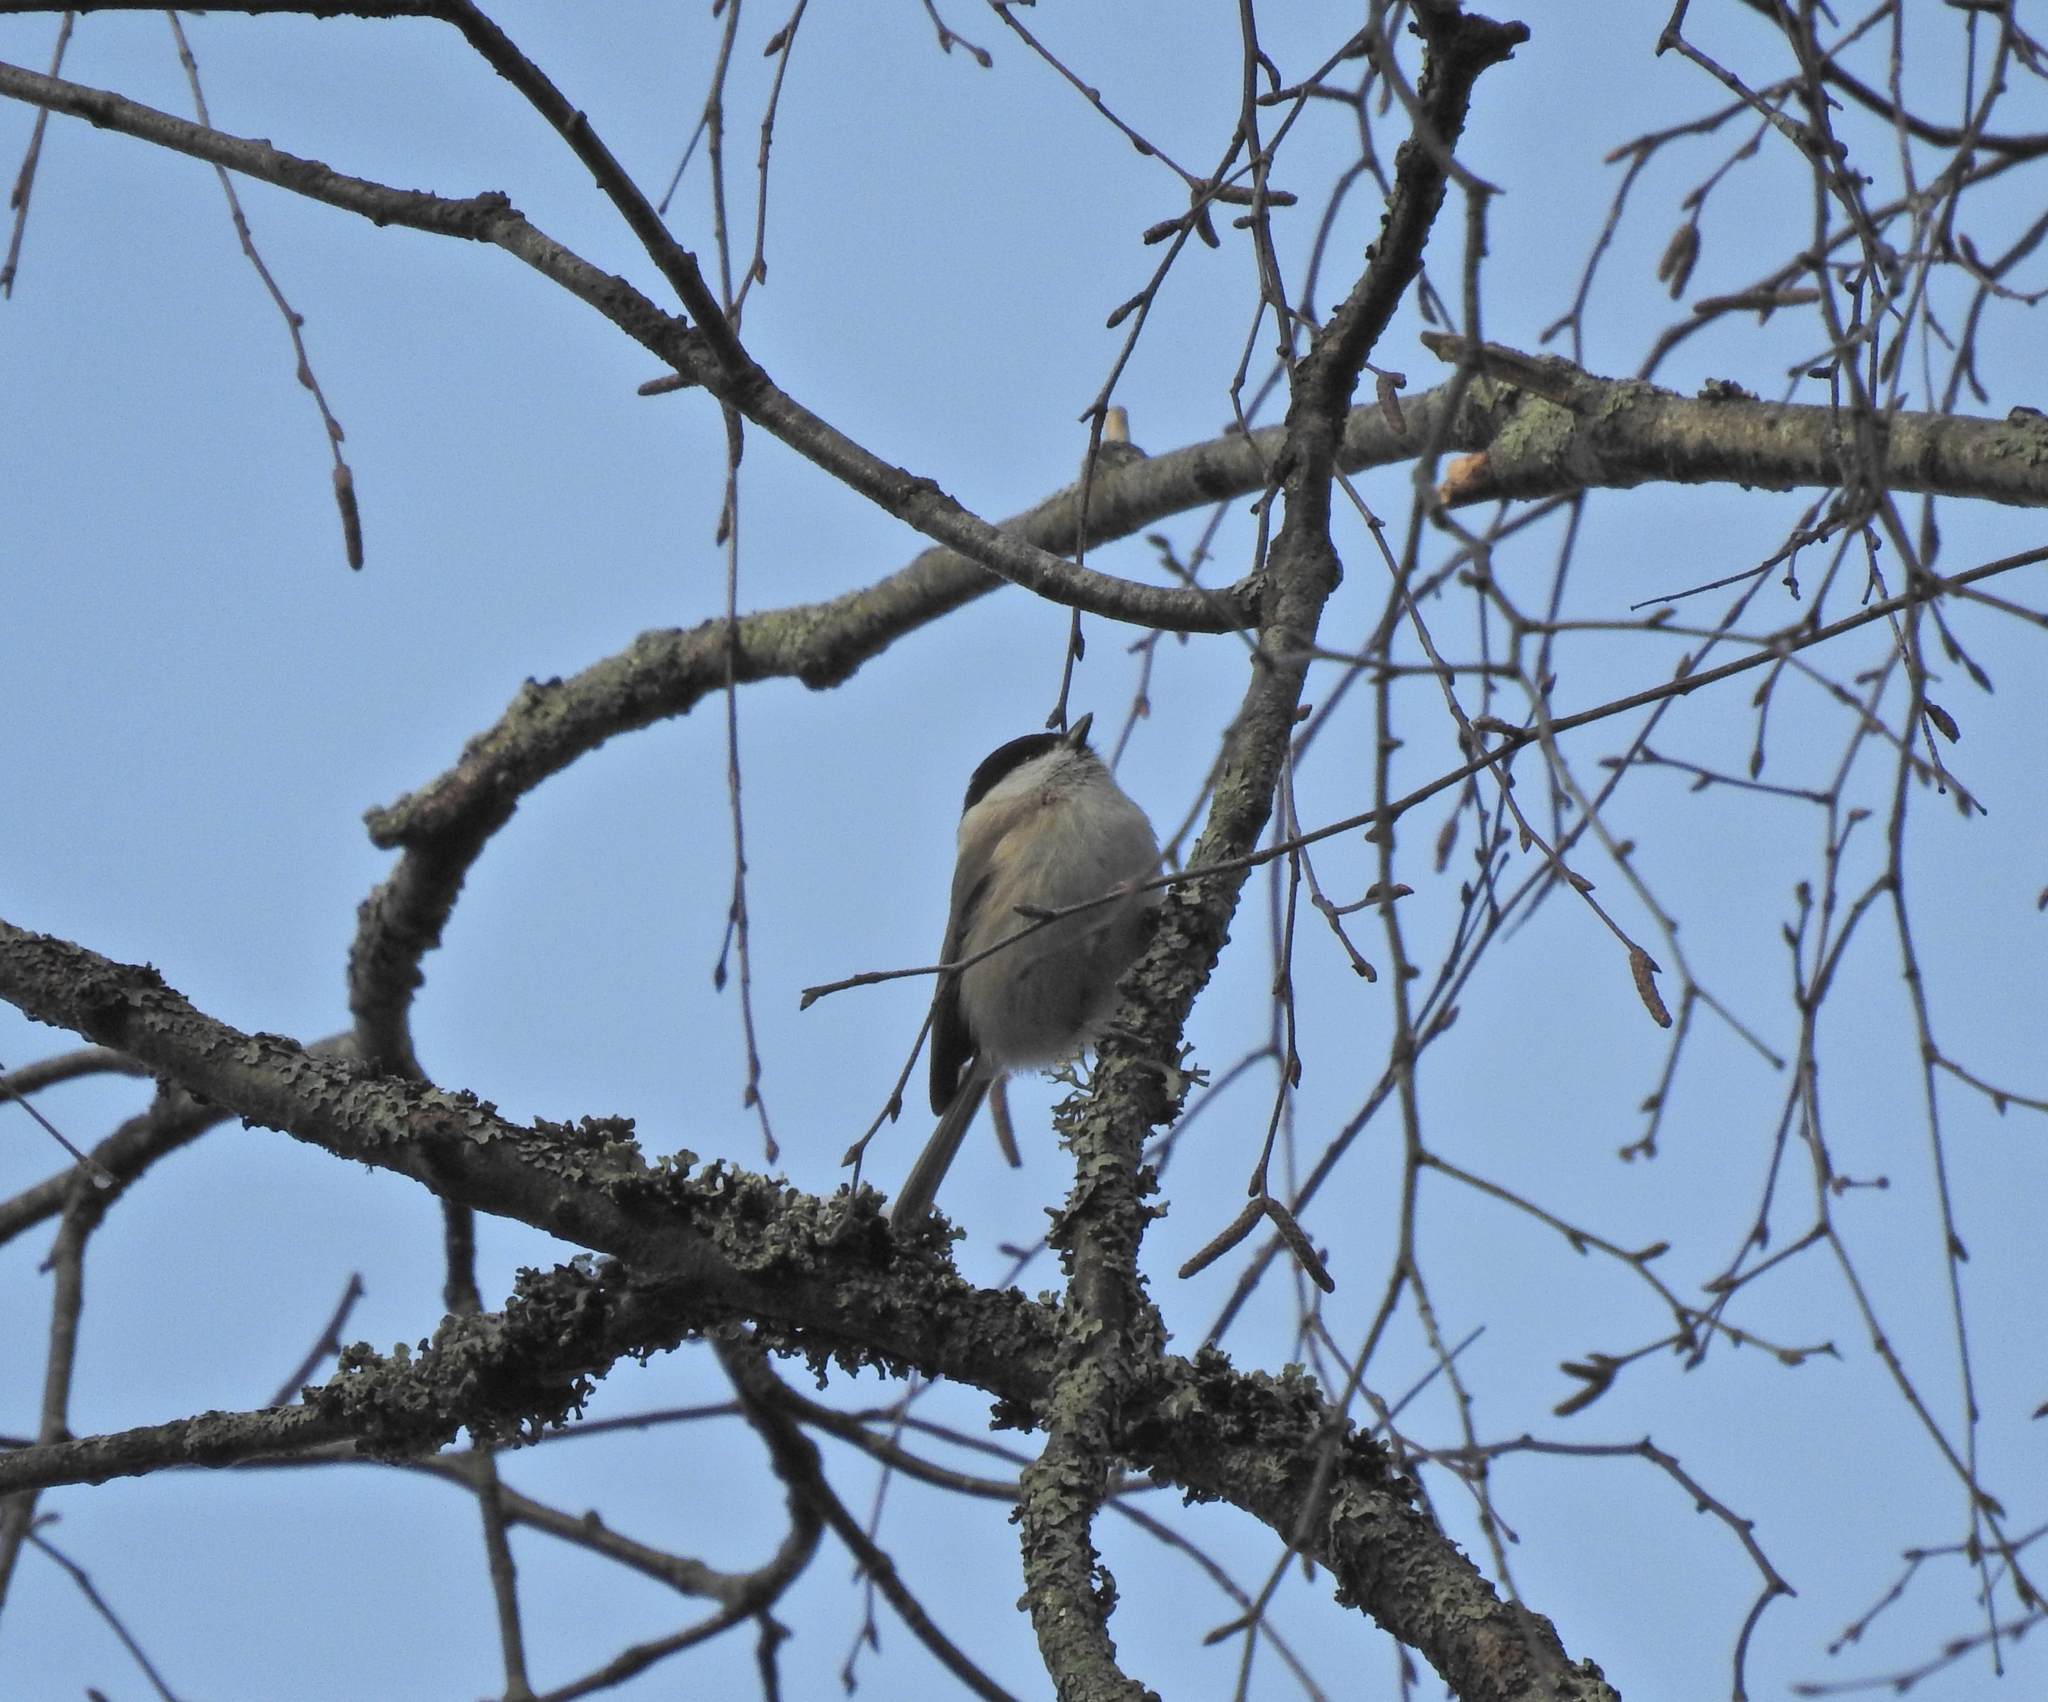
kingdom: Animalia
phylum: Chordata
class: Aves
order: Passeriformes
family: Paridae
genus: Poecile
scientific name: Poecile palustris
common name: Marsh tit
